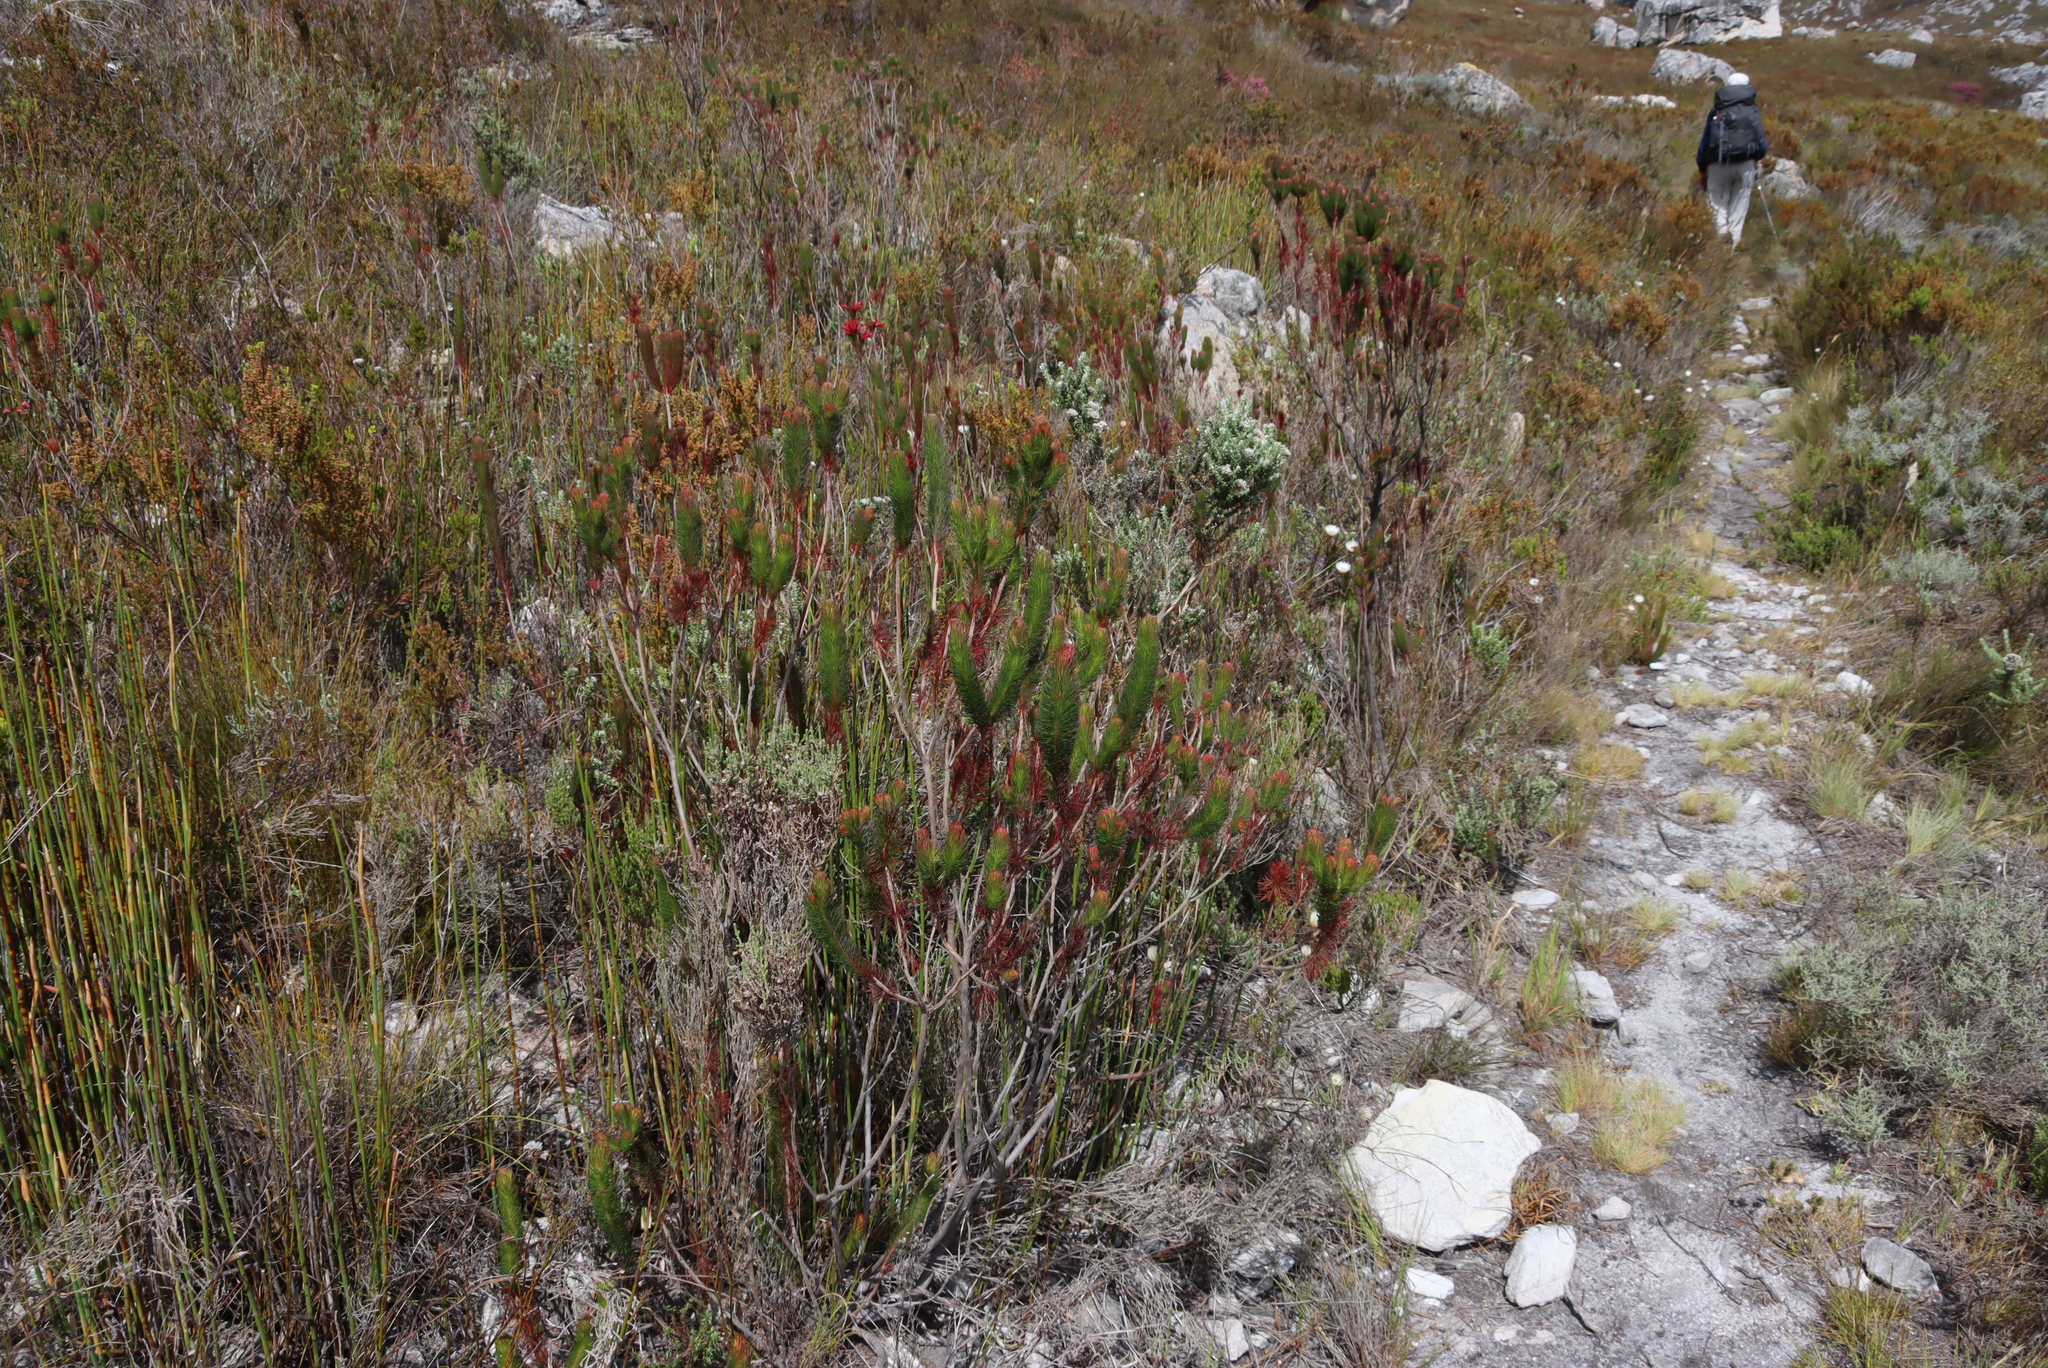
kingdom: Plantae
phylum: Tracheophyta
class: Magnoliopsida
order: Ericales
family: Ericaceae
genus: Erica
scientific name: Erica vestita
